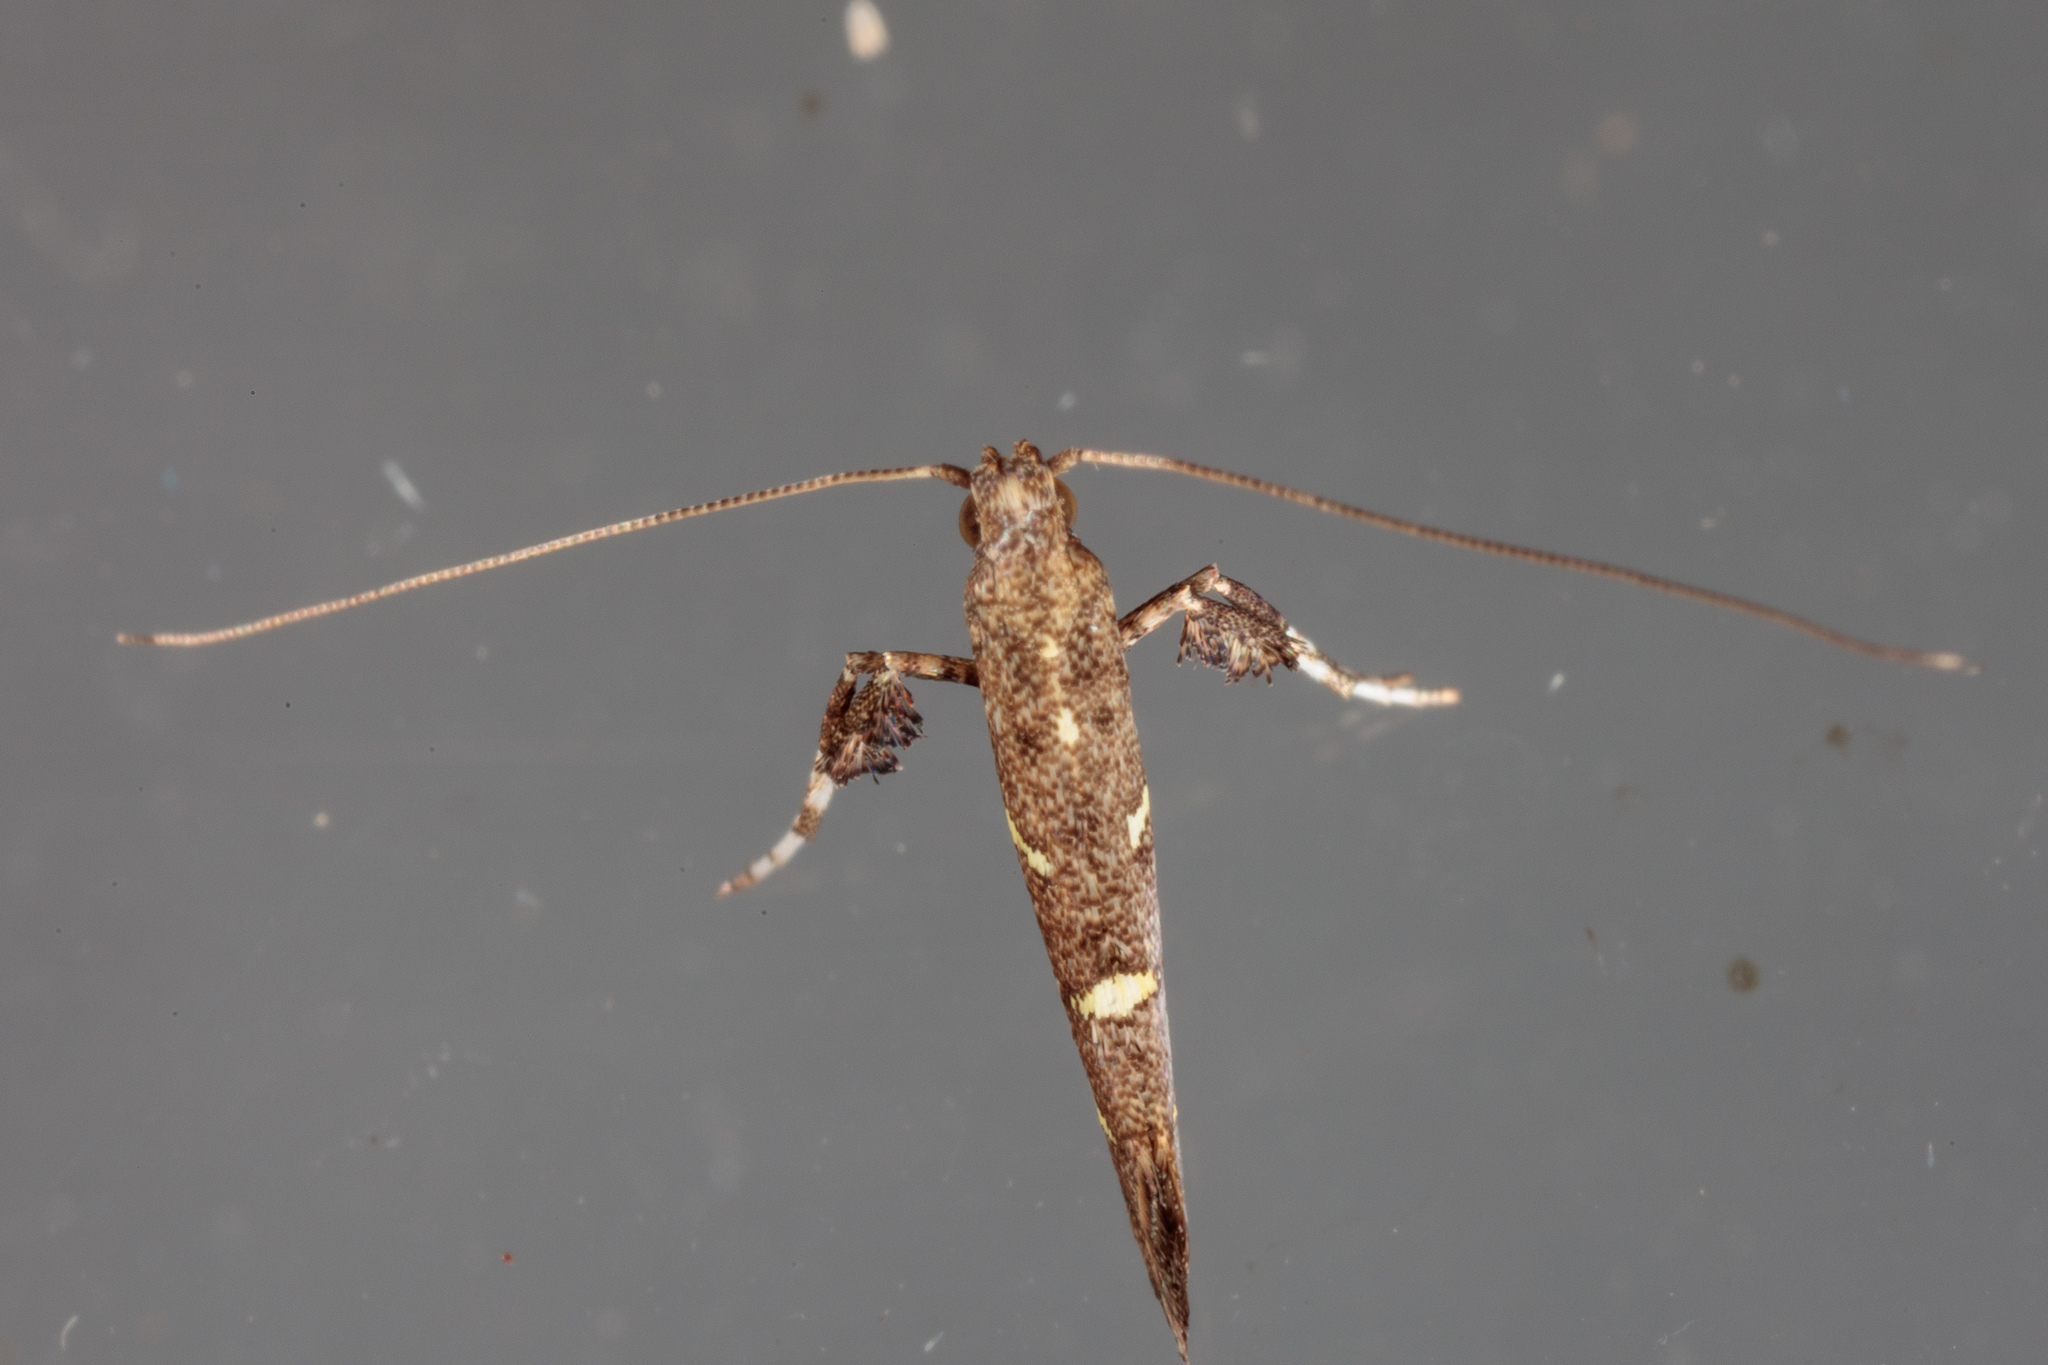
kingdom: Animalia
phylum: Arthropoda
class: Insecta
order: Lepidoptera
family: Gracillariidae
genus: Caloptilia
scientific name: Caloptilia triadicae
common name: Tallow leaf roller
